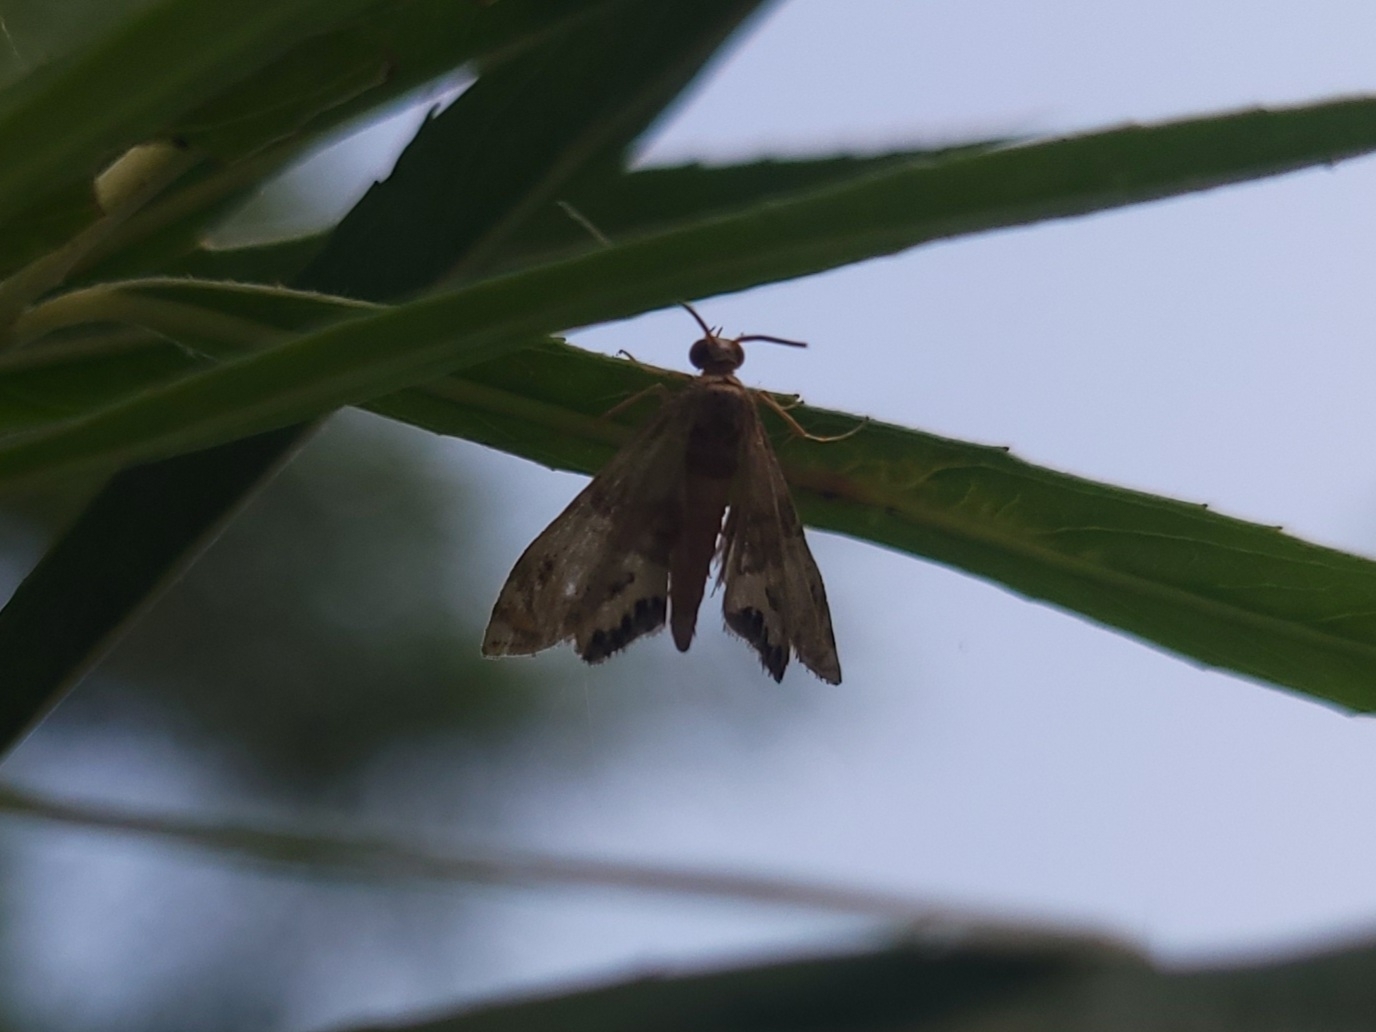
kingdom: Animalia
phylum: Arthropoda
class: Insecta
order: Lepidoptera
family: Crambidae
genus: Petrophila
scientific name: Petrophila bifascialis
